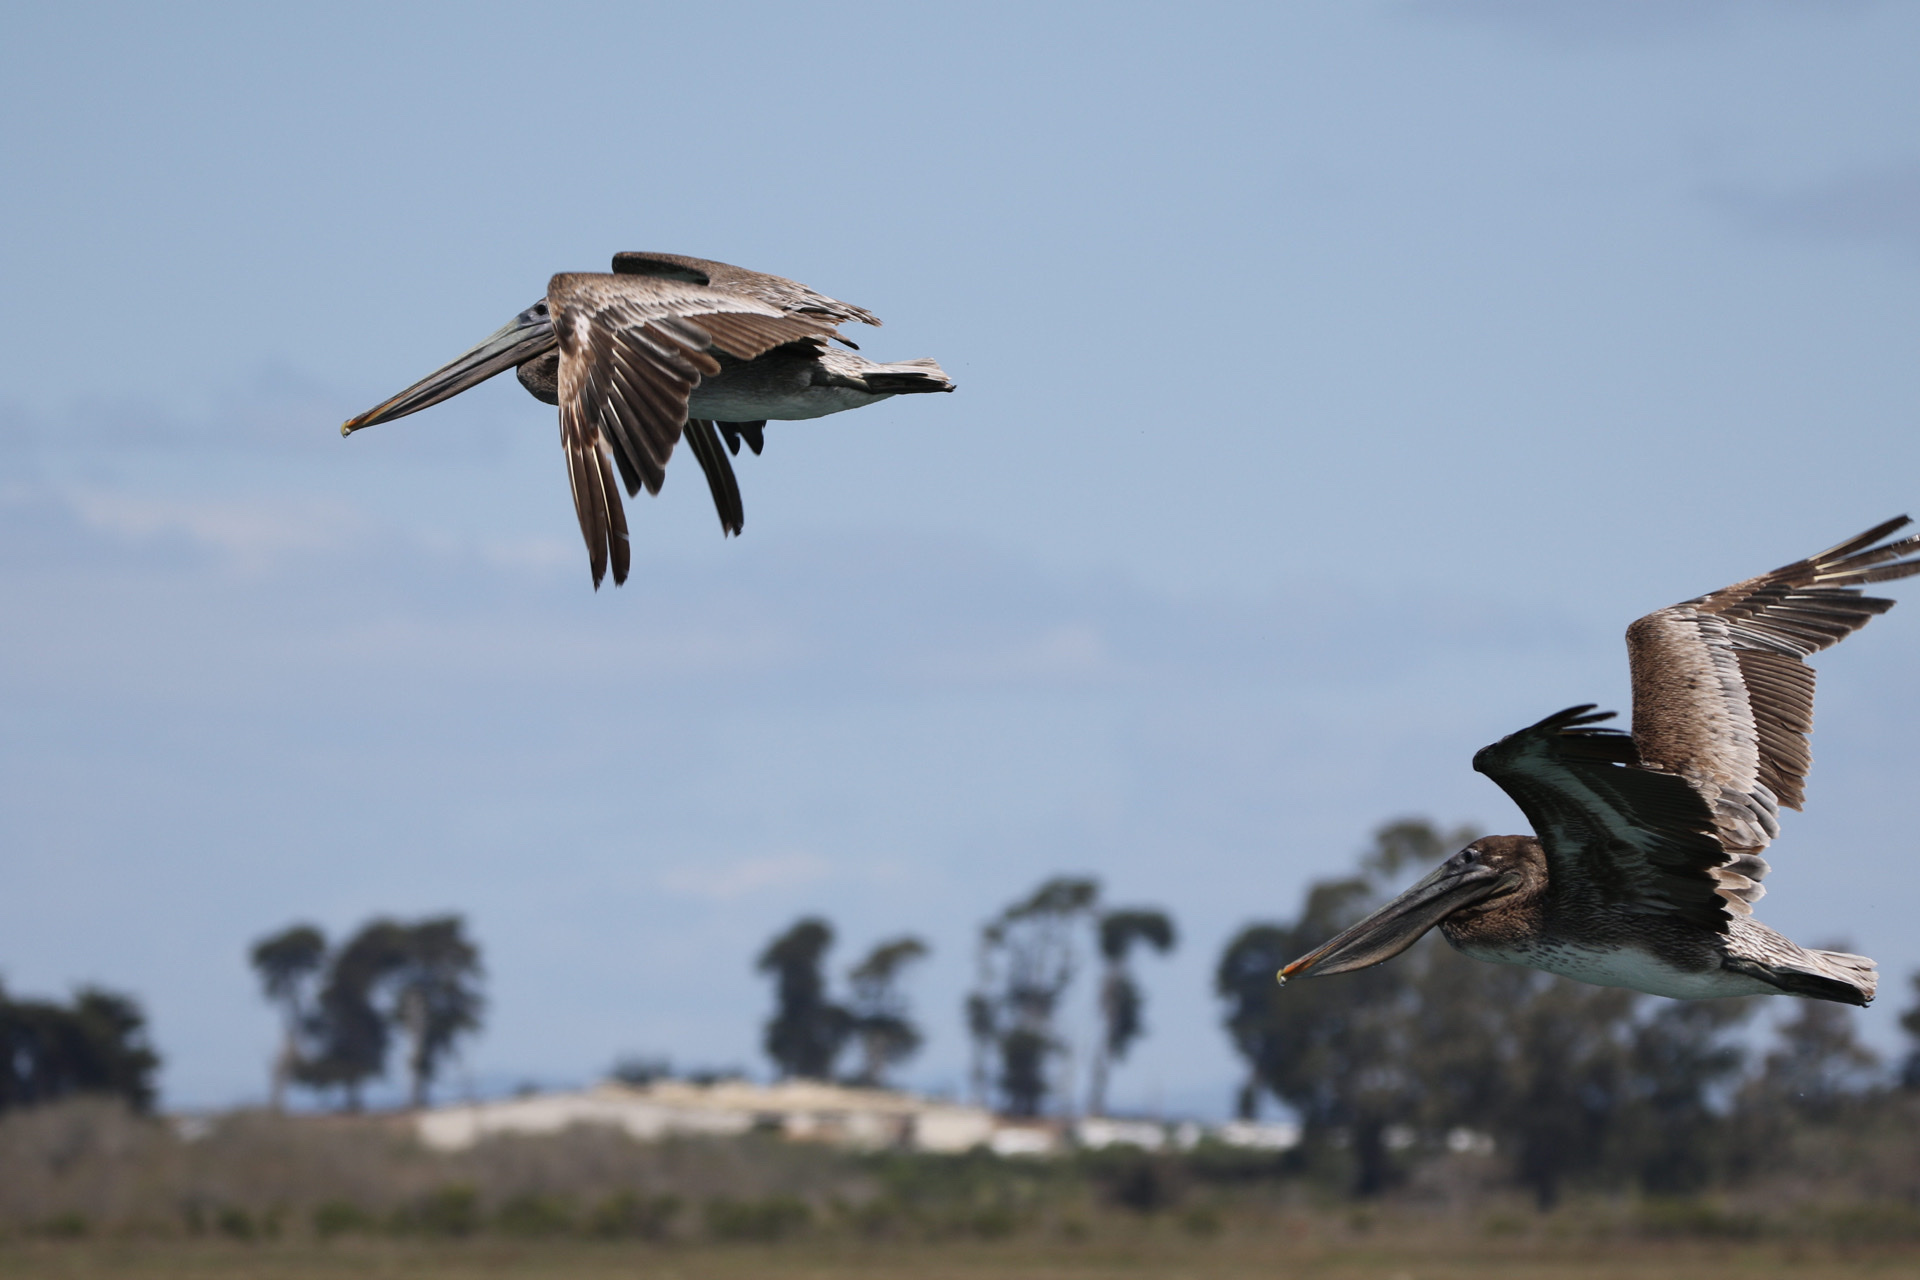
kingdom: Animalia
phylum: Chordata
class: Aves
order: Pelecaniformes
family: Pelecanidae
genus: Pelecanus
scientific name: Pelecanus occidentalis
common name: Brown pelican
